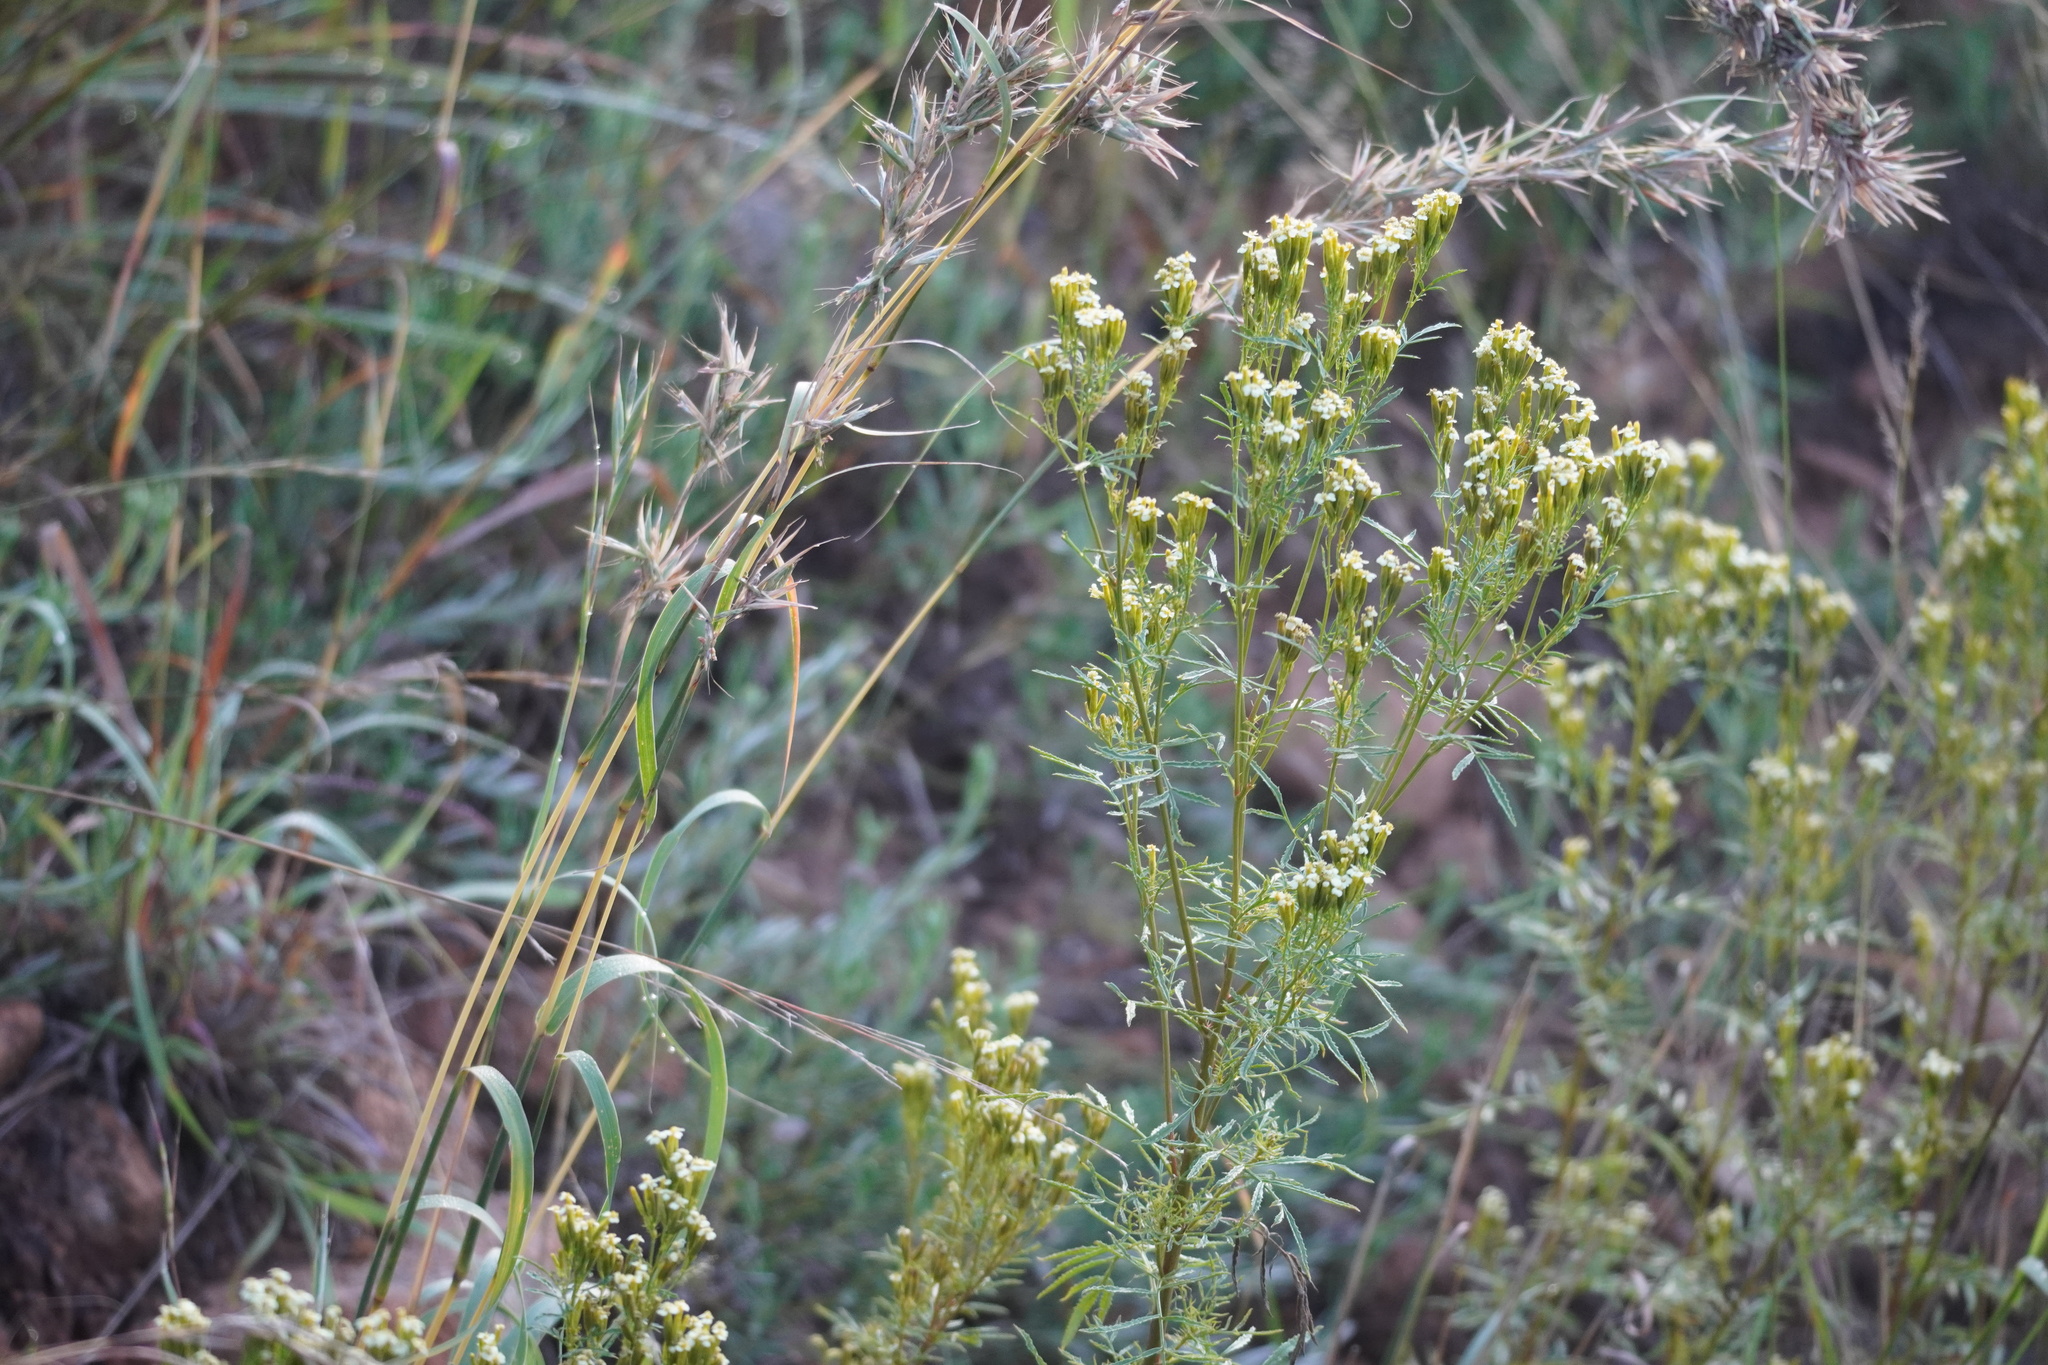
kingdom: Plantae
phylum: Tracheophyta
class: Magnoliopsida
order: Asterales
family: Asteraceae
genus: Tagetes
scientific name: Tagetes minuta
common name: Muster john henry
